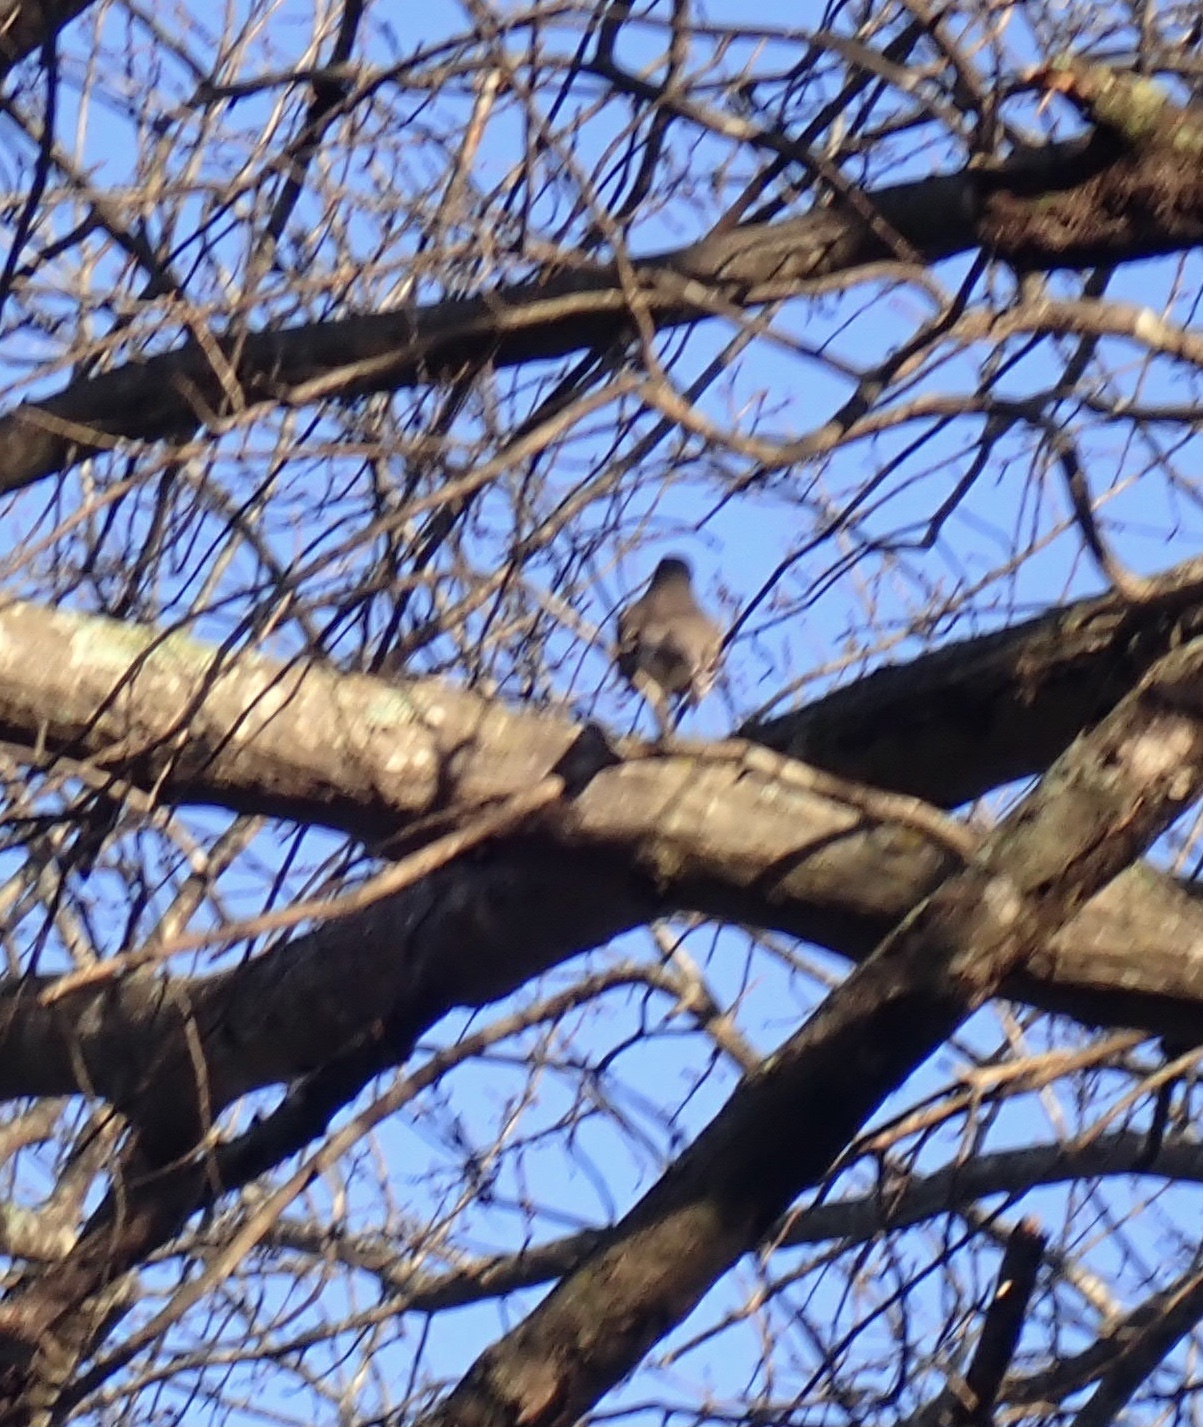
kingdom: Animalia
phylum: Chordata
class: Aves
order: Passeriformes
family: Turdidae
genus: Turdus
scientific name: Turdus migratorius
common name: American robin
